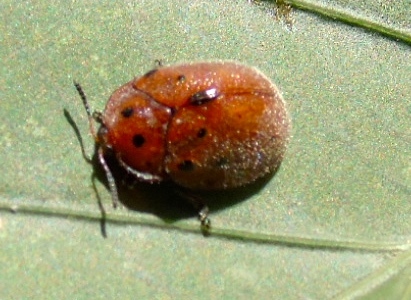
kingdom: Animalia
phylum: Arthropoda
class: Insecta
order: Coleoptera
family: Chrysomelidae
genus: Chelymorpha
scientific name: Chelymorpha
